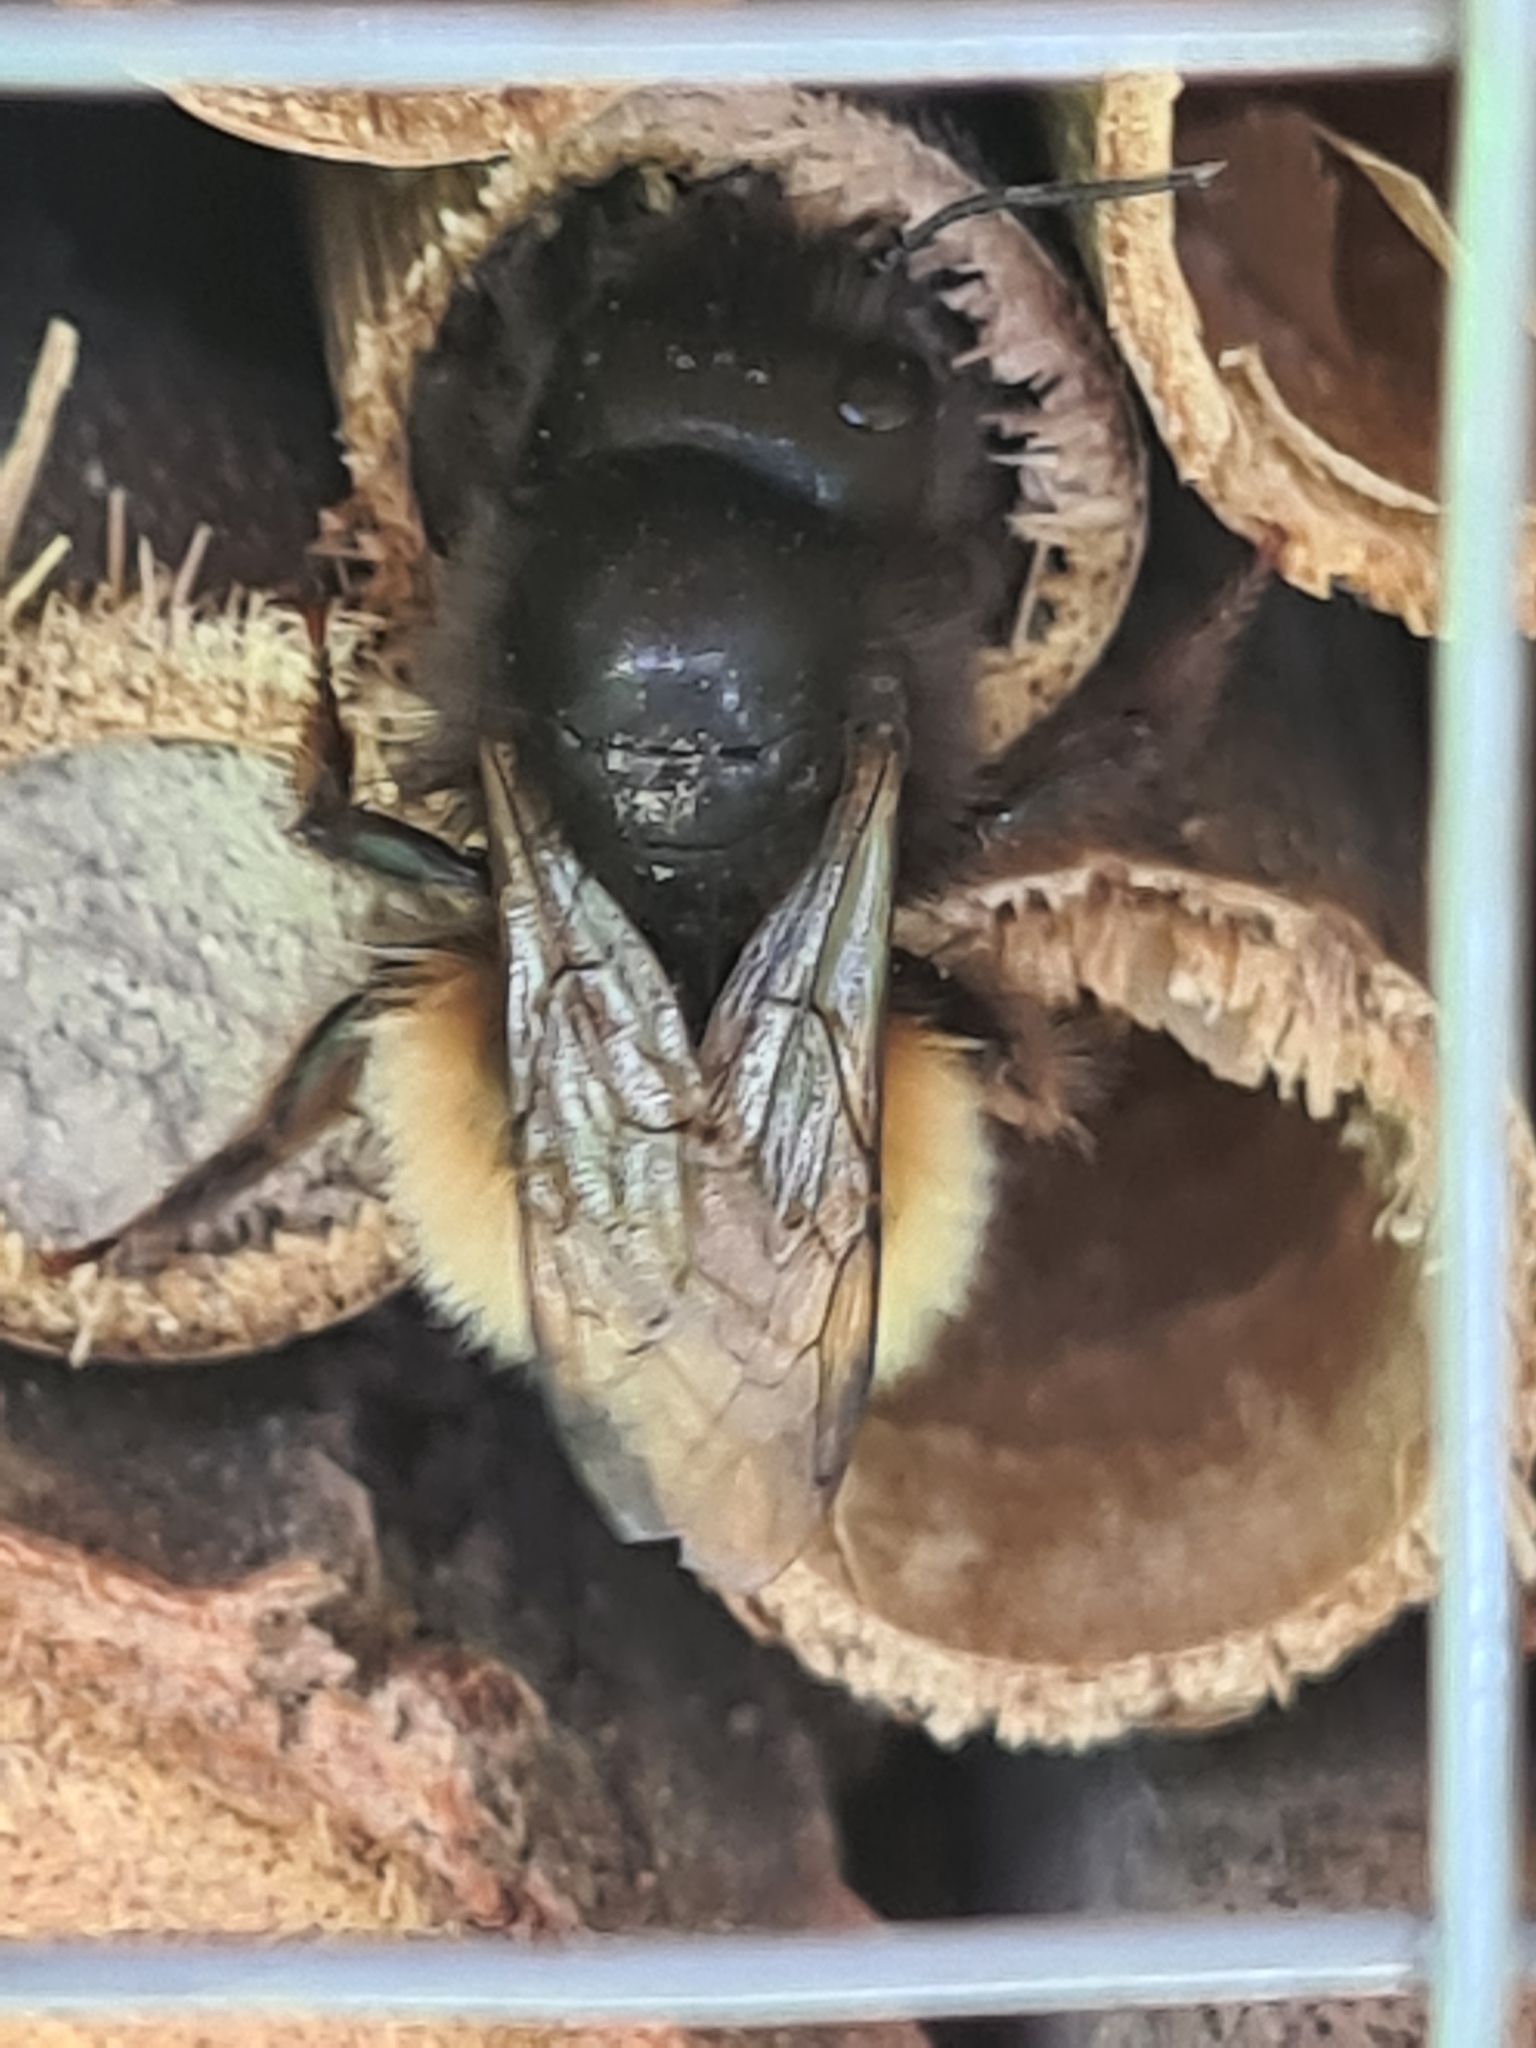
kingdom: Animalia
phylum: Arthropoda
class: Insecta
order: Hymenoptera
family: Megachilidae
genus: Osmia
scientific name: Osmia cornuta
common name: Mason bee
